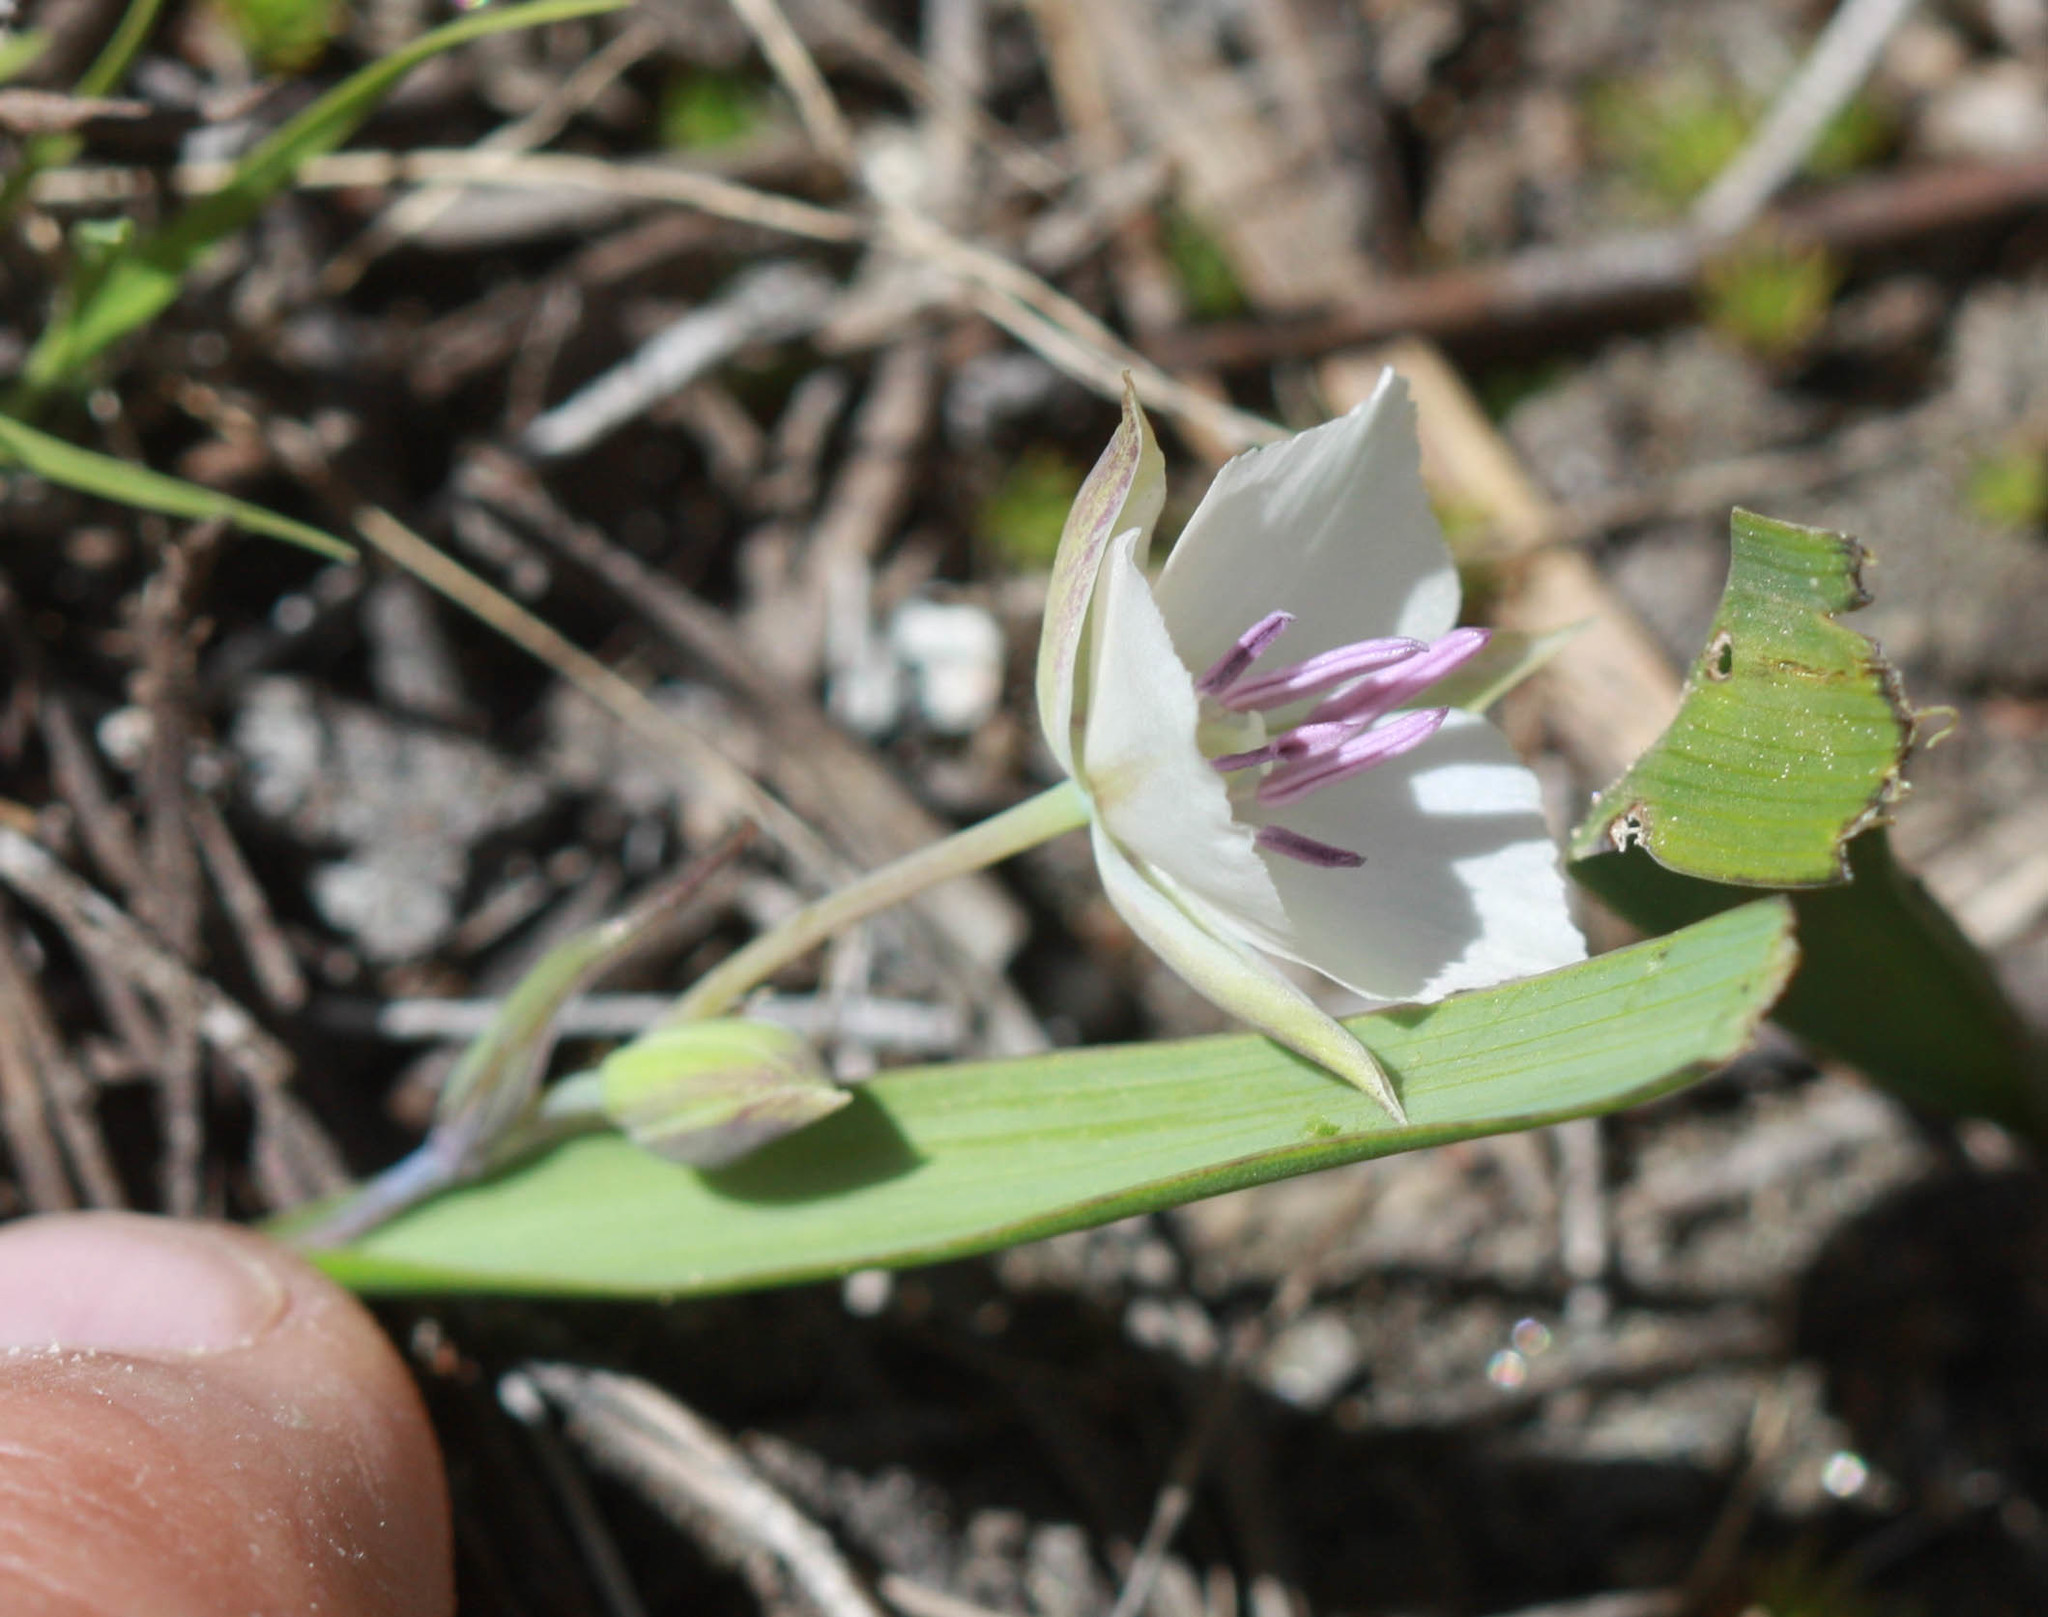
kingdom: Plantae
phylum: Tracheophyta
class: Liliopsida
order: Liliales
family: Liliaceae
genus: Calochortus
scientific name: Calochortus minimus
